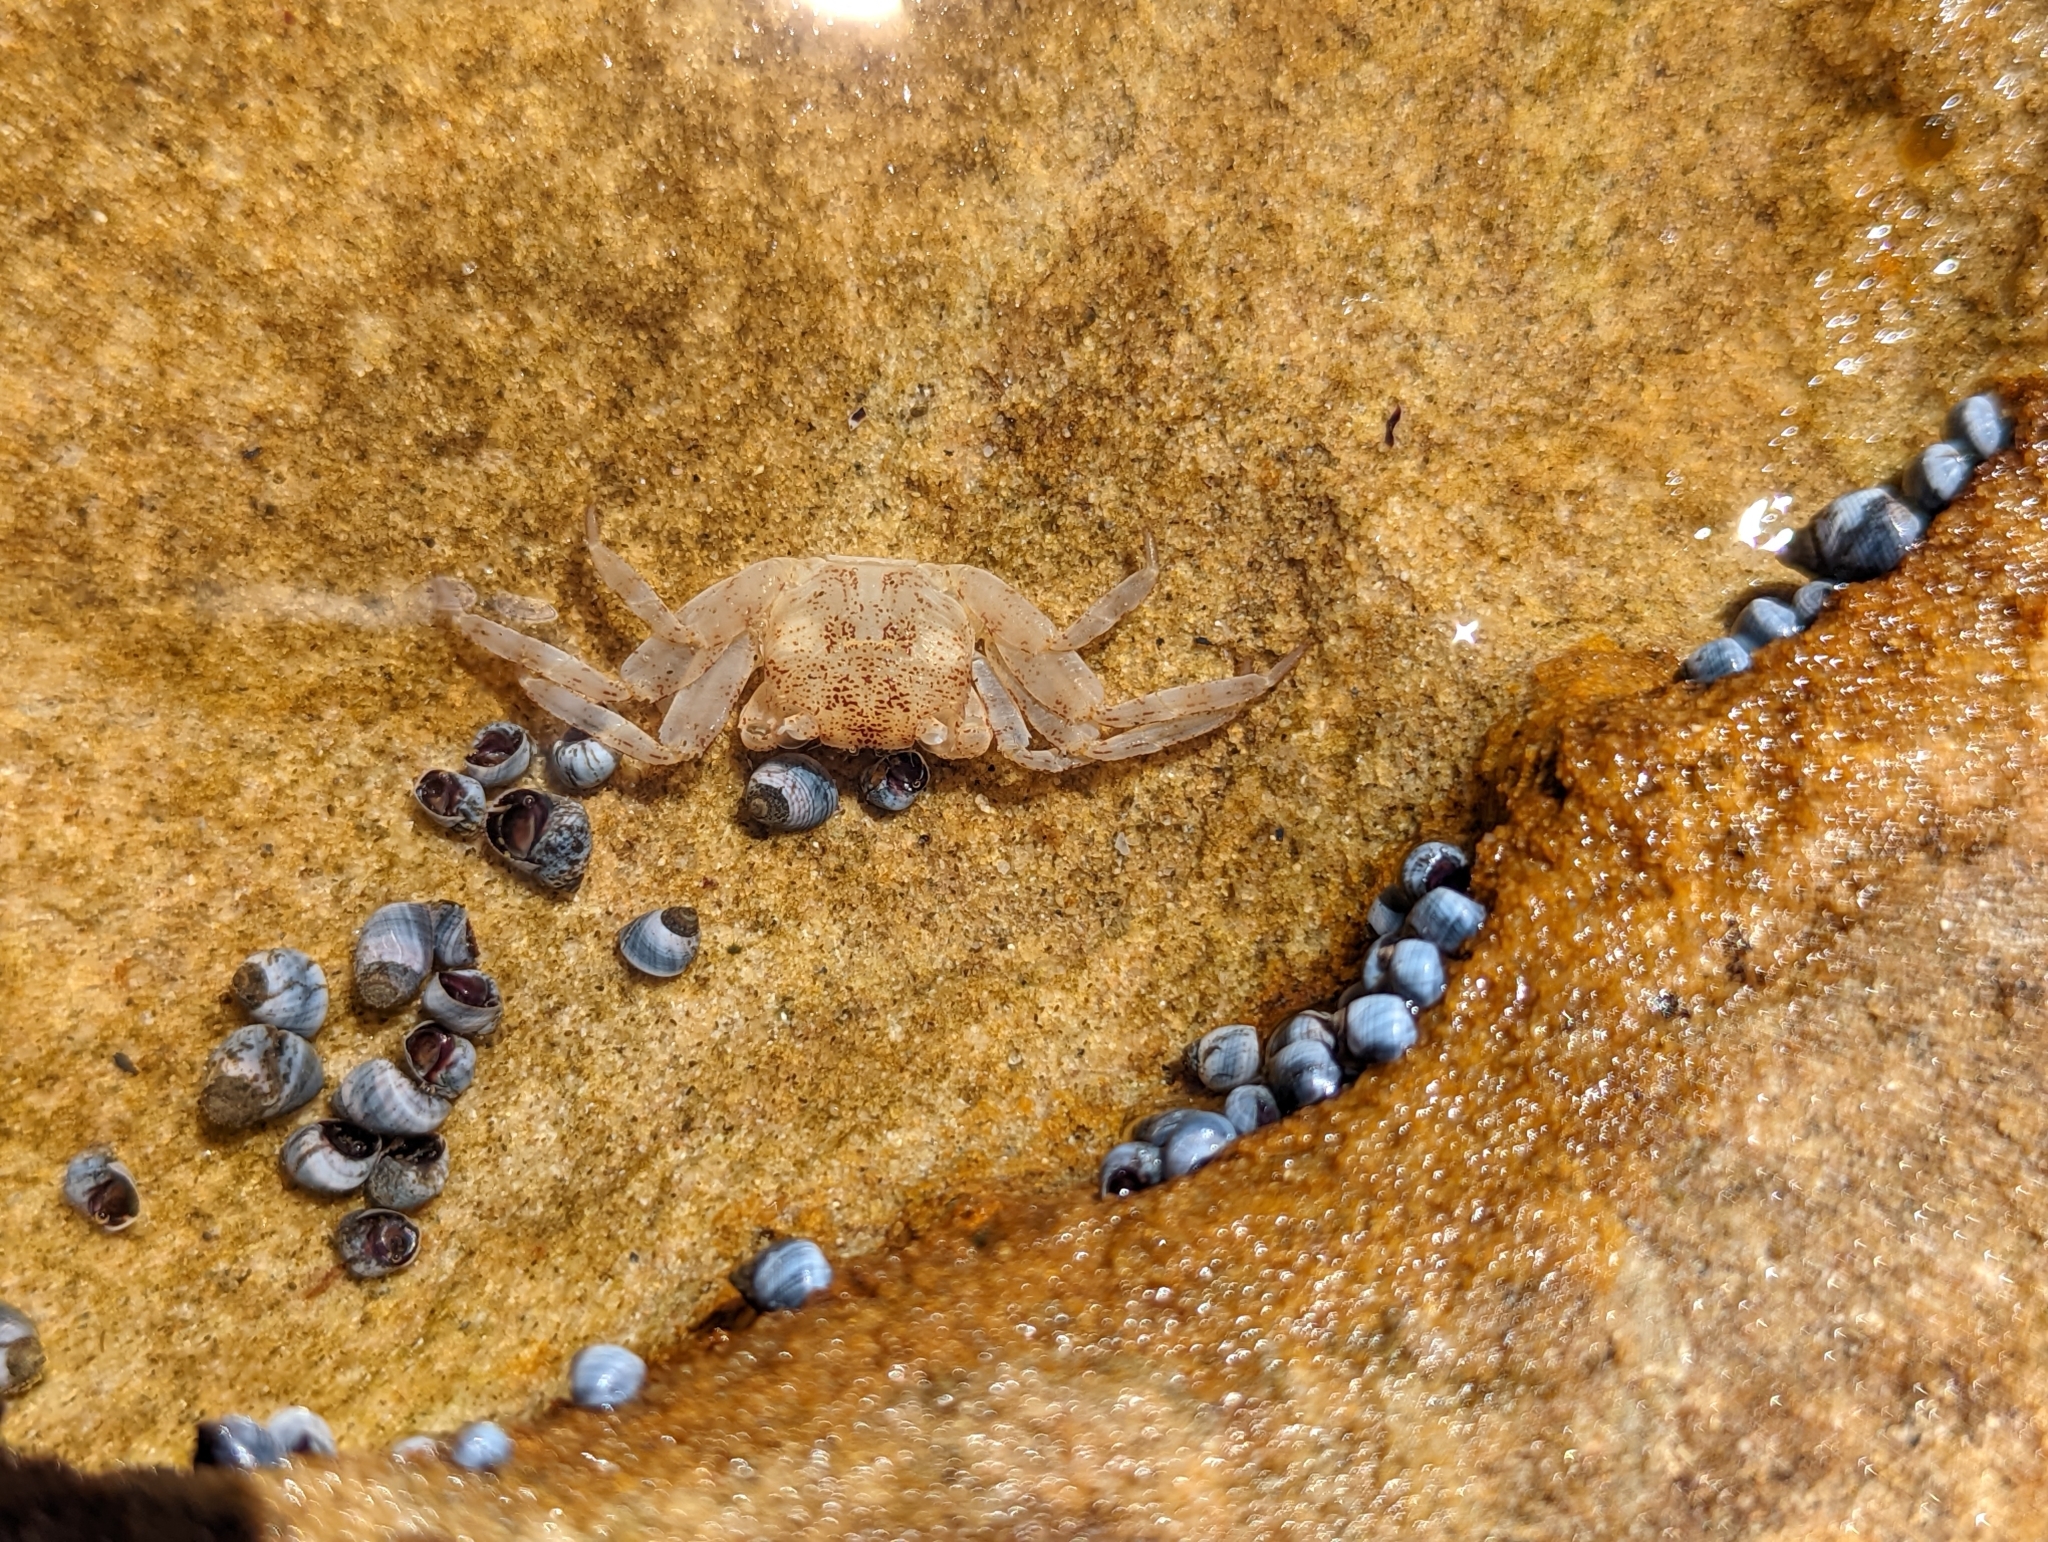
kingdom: Animalia
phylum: Arthropoda
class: Malacostraca
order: Decapoda
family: Grapsidae
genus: Leptograpsus
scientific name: Leptograpsus variegatus
